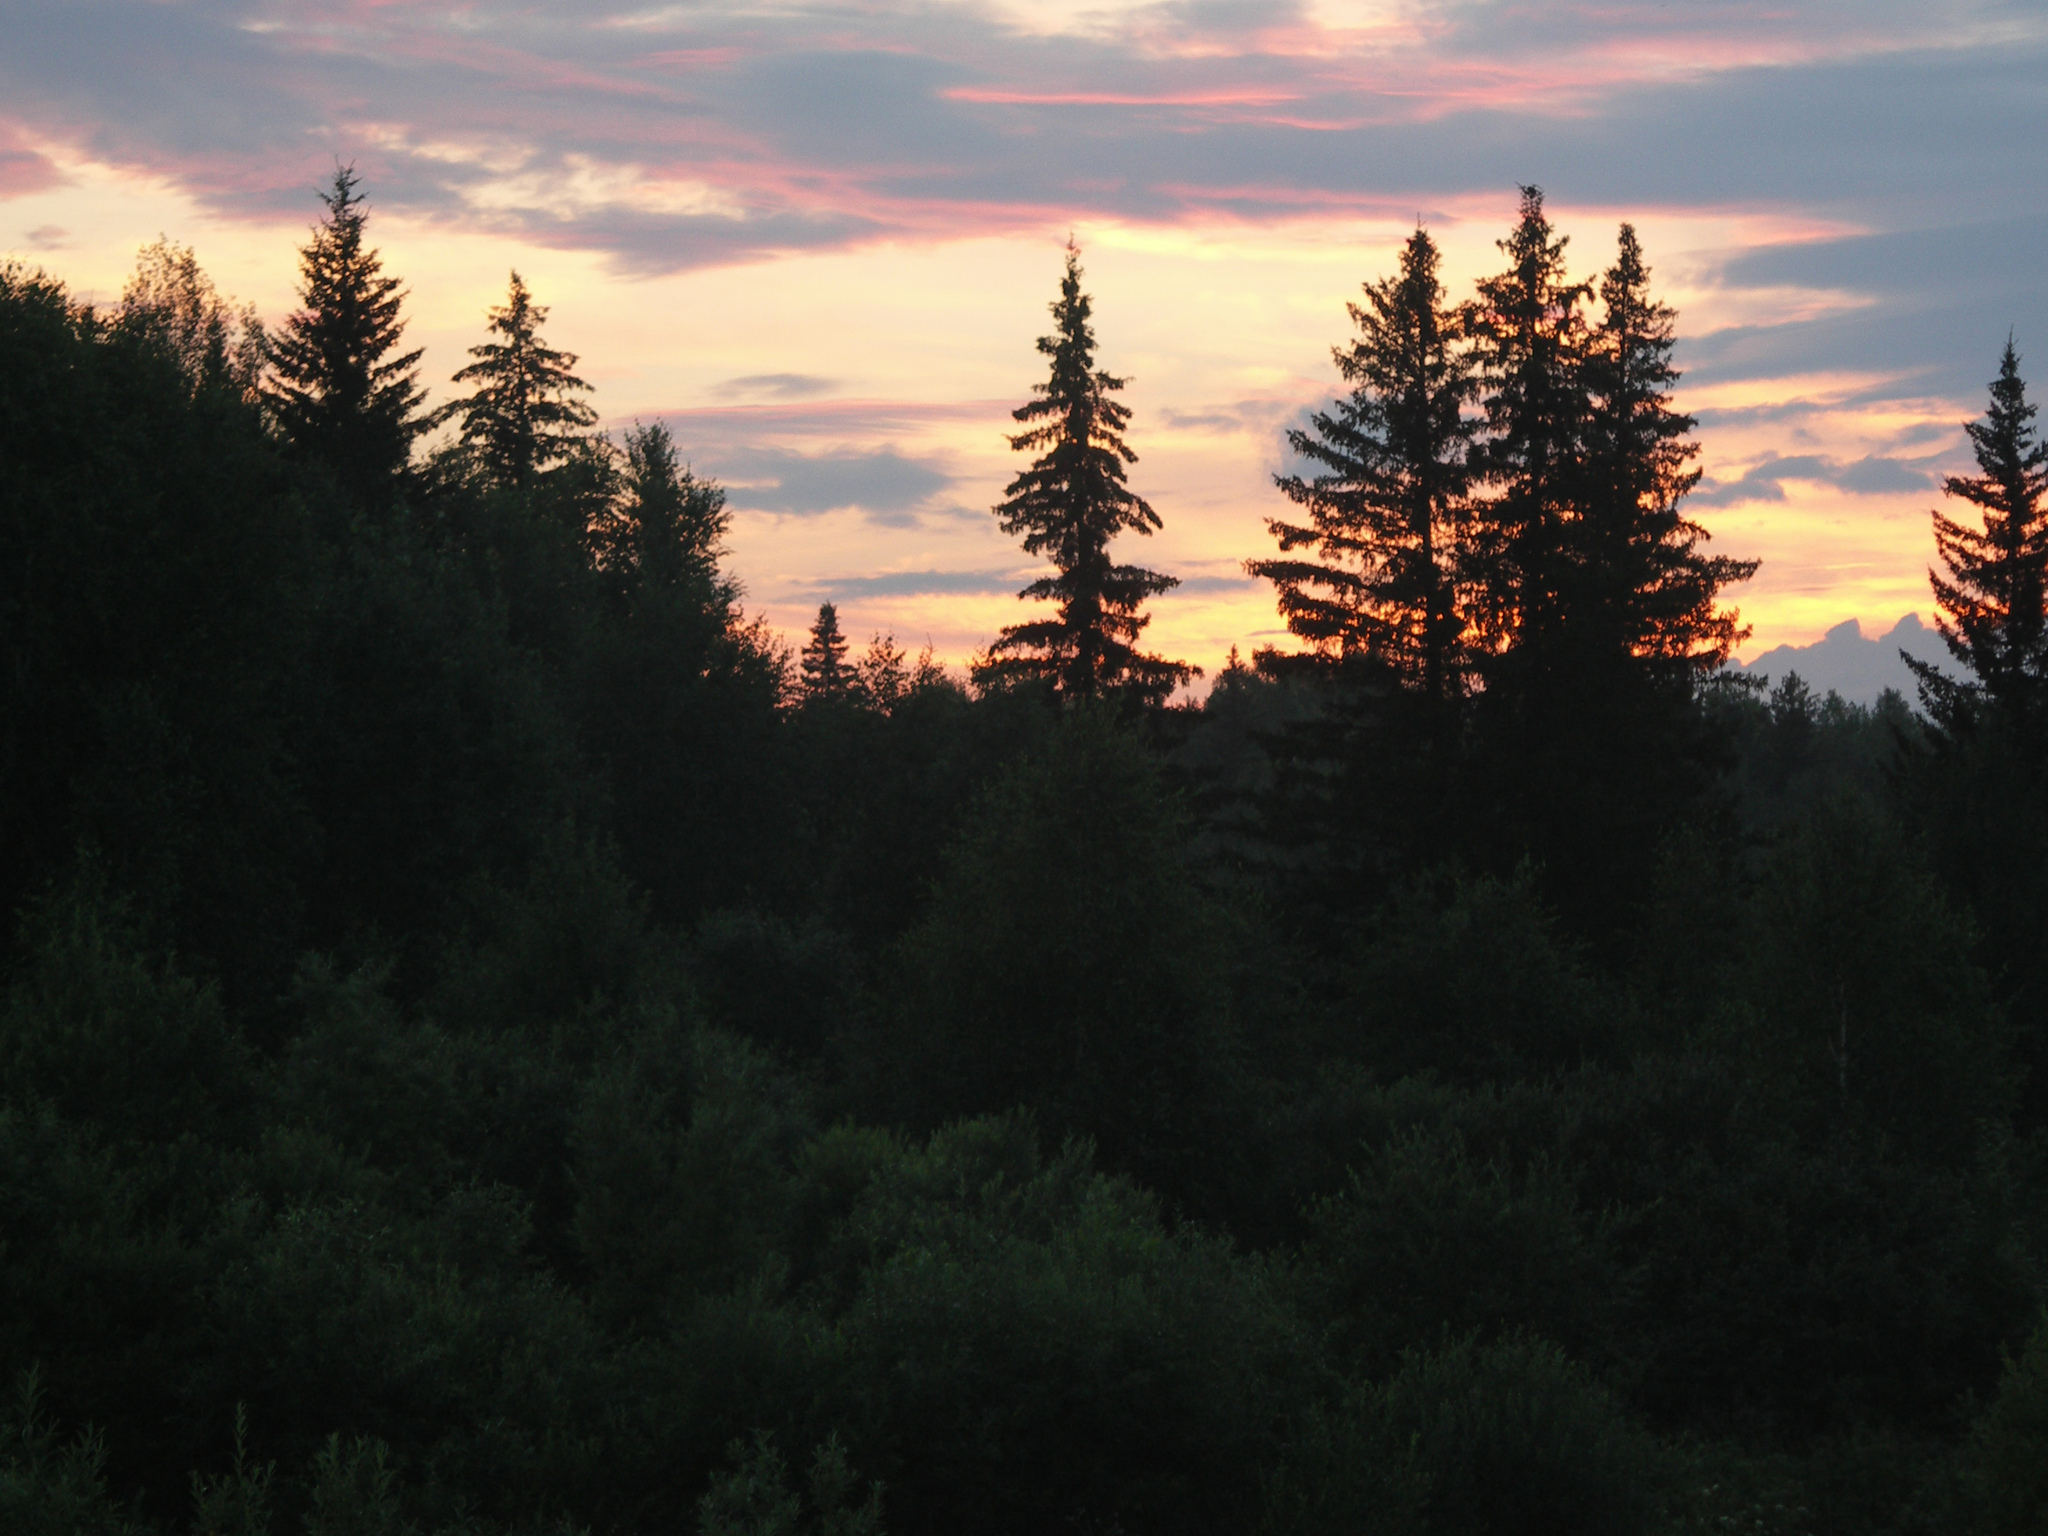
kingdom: Plantae
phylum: Tracheophyta
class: Pinopsida
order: Pinales
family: Pinaceae
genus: Picea
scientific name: Picea obovata
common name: Siberian spruce
